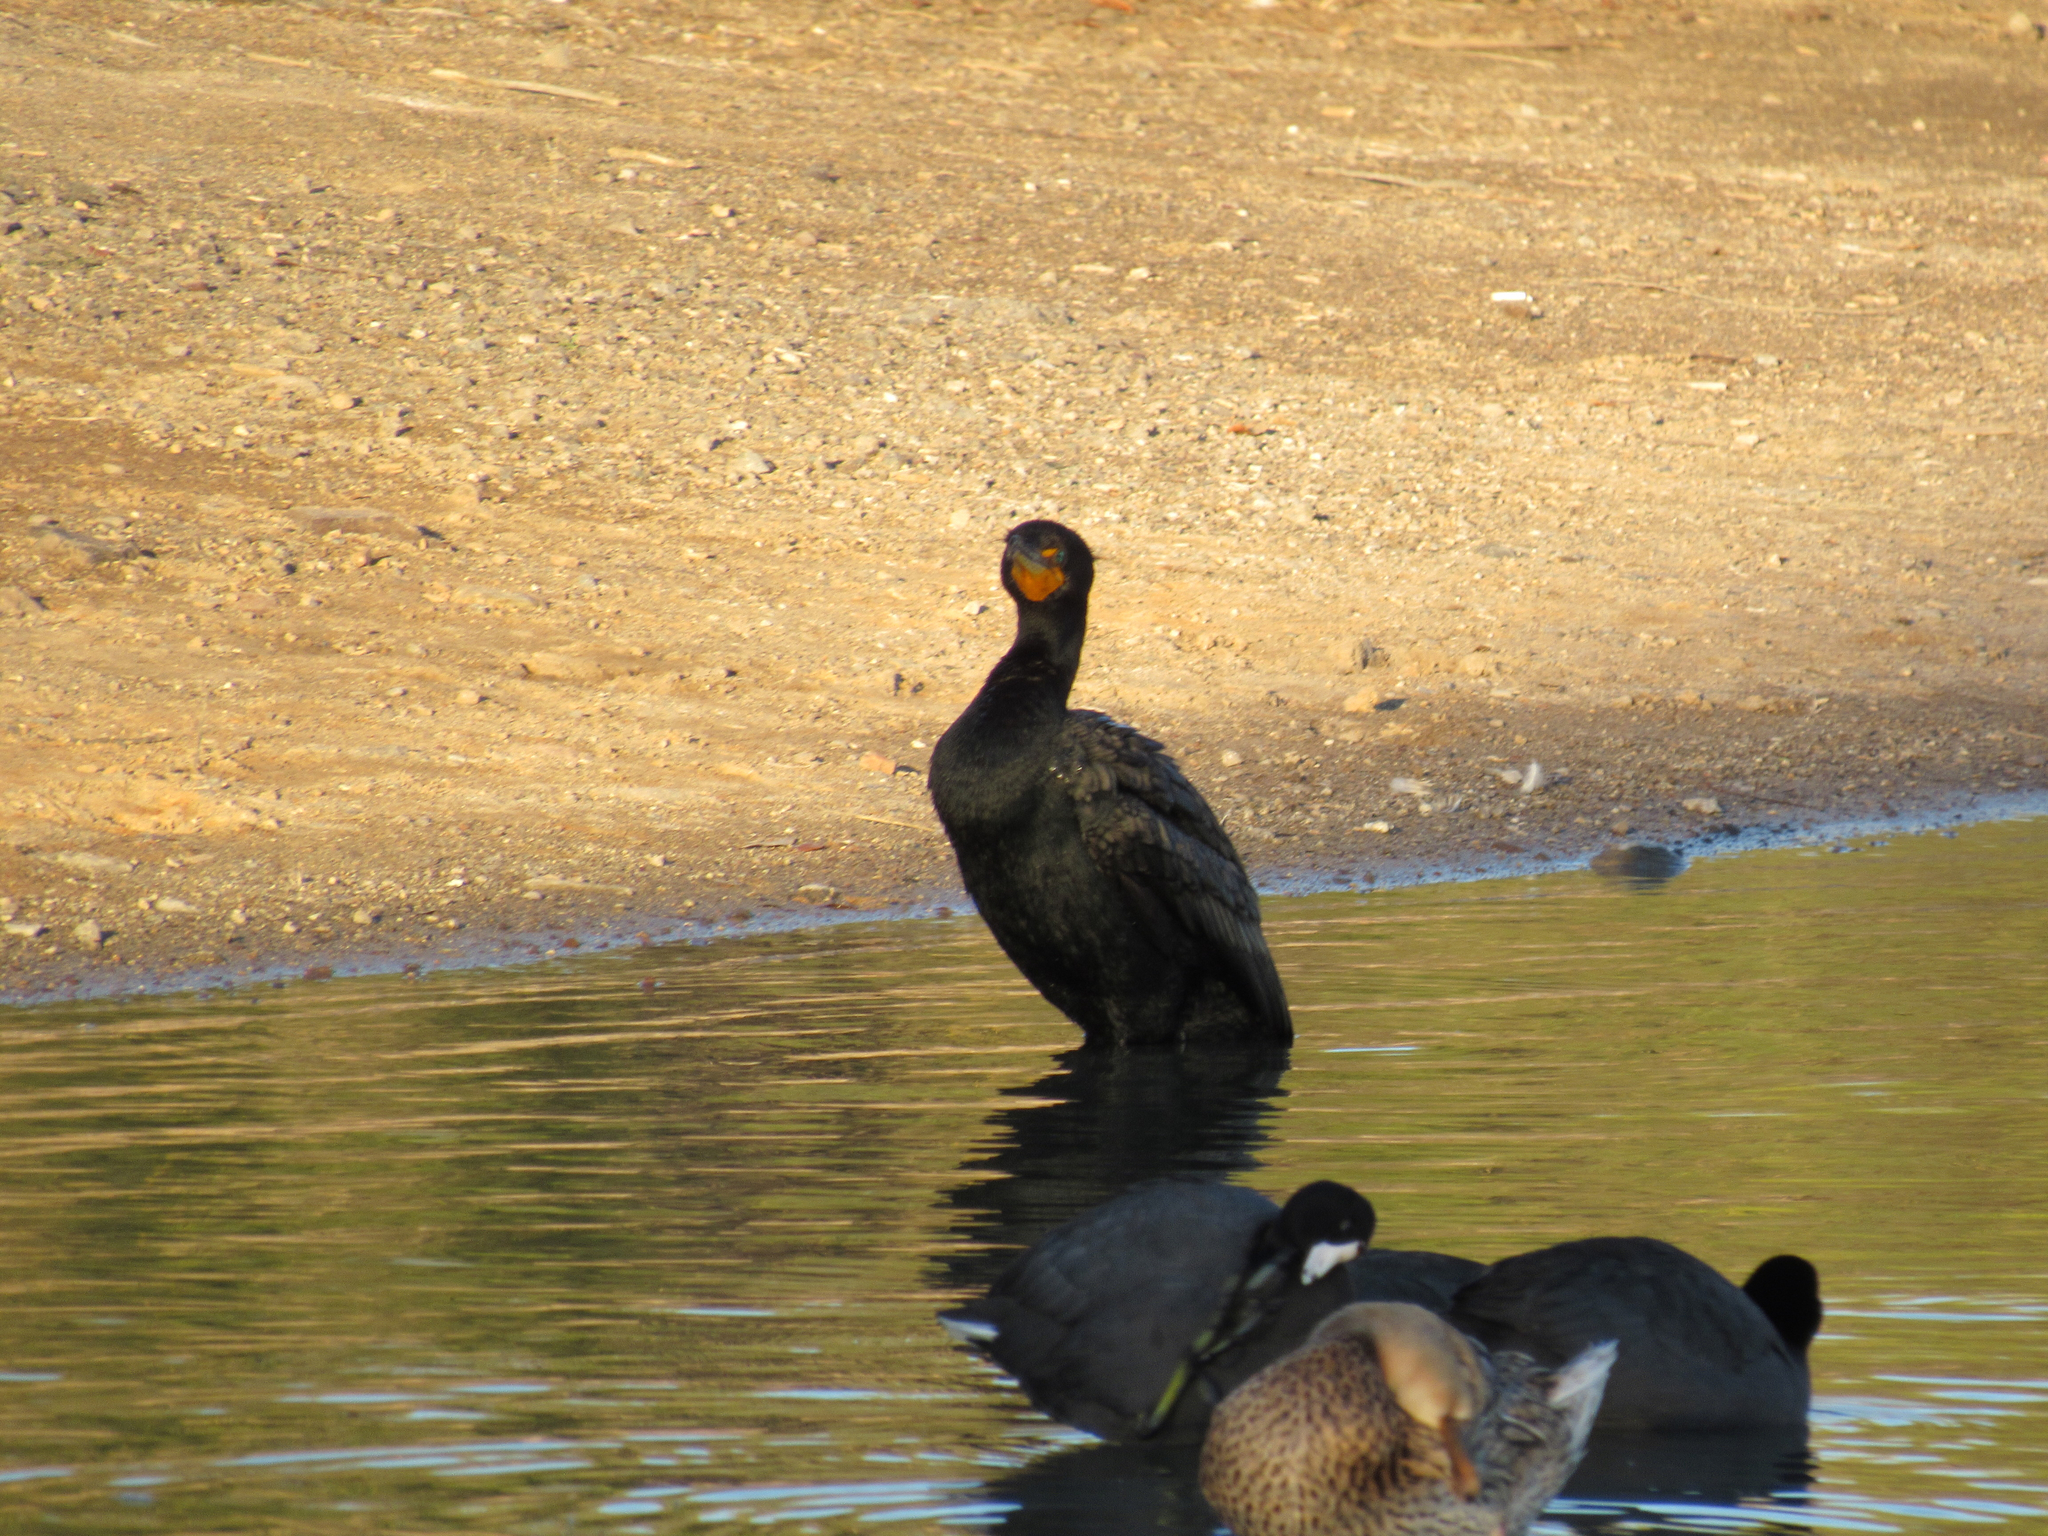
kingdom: Animalia
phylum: Chordata
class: Aves
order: Suliformes
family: Phalacrocoracidae
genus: Phalacrocorax
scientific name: Phalacrocorax auritus
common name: Double-crested cormorant
